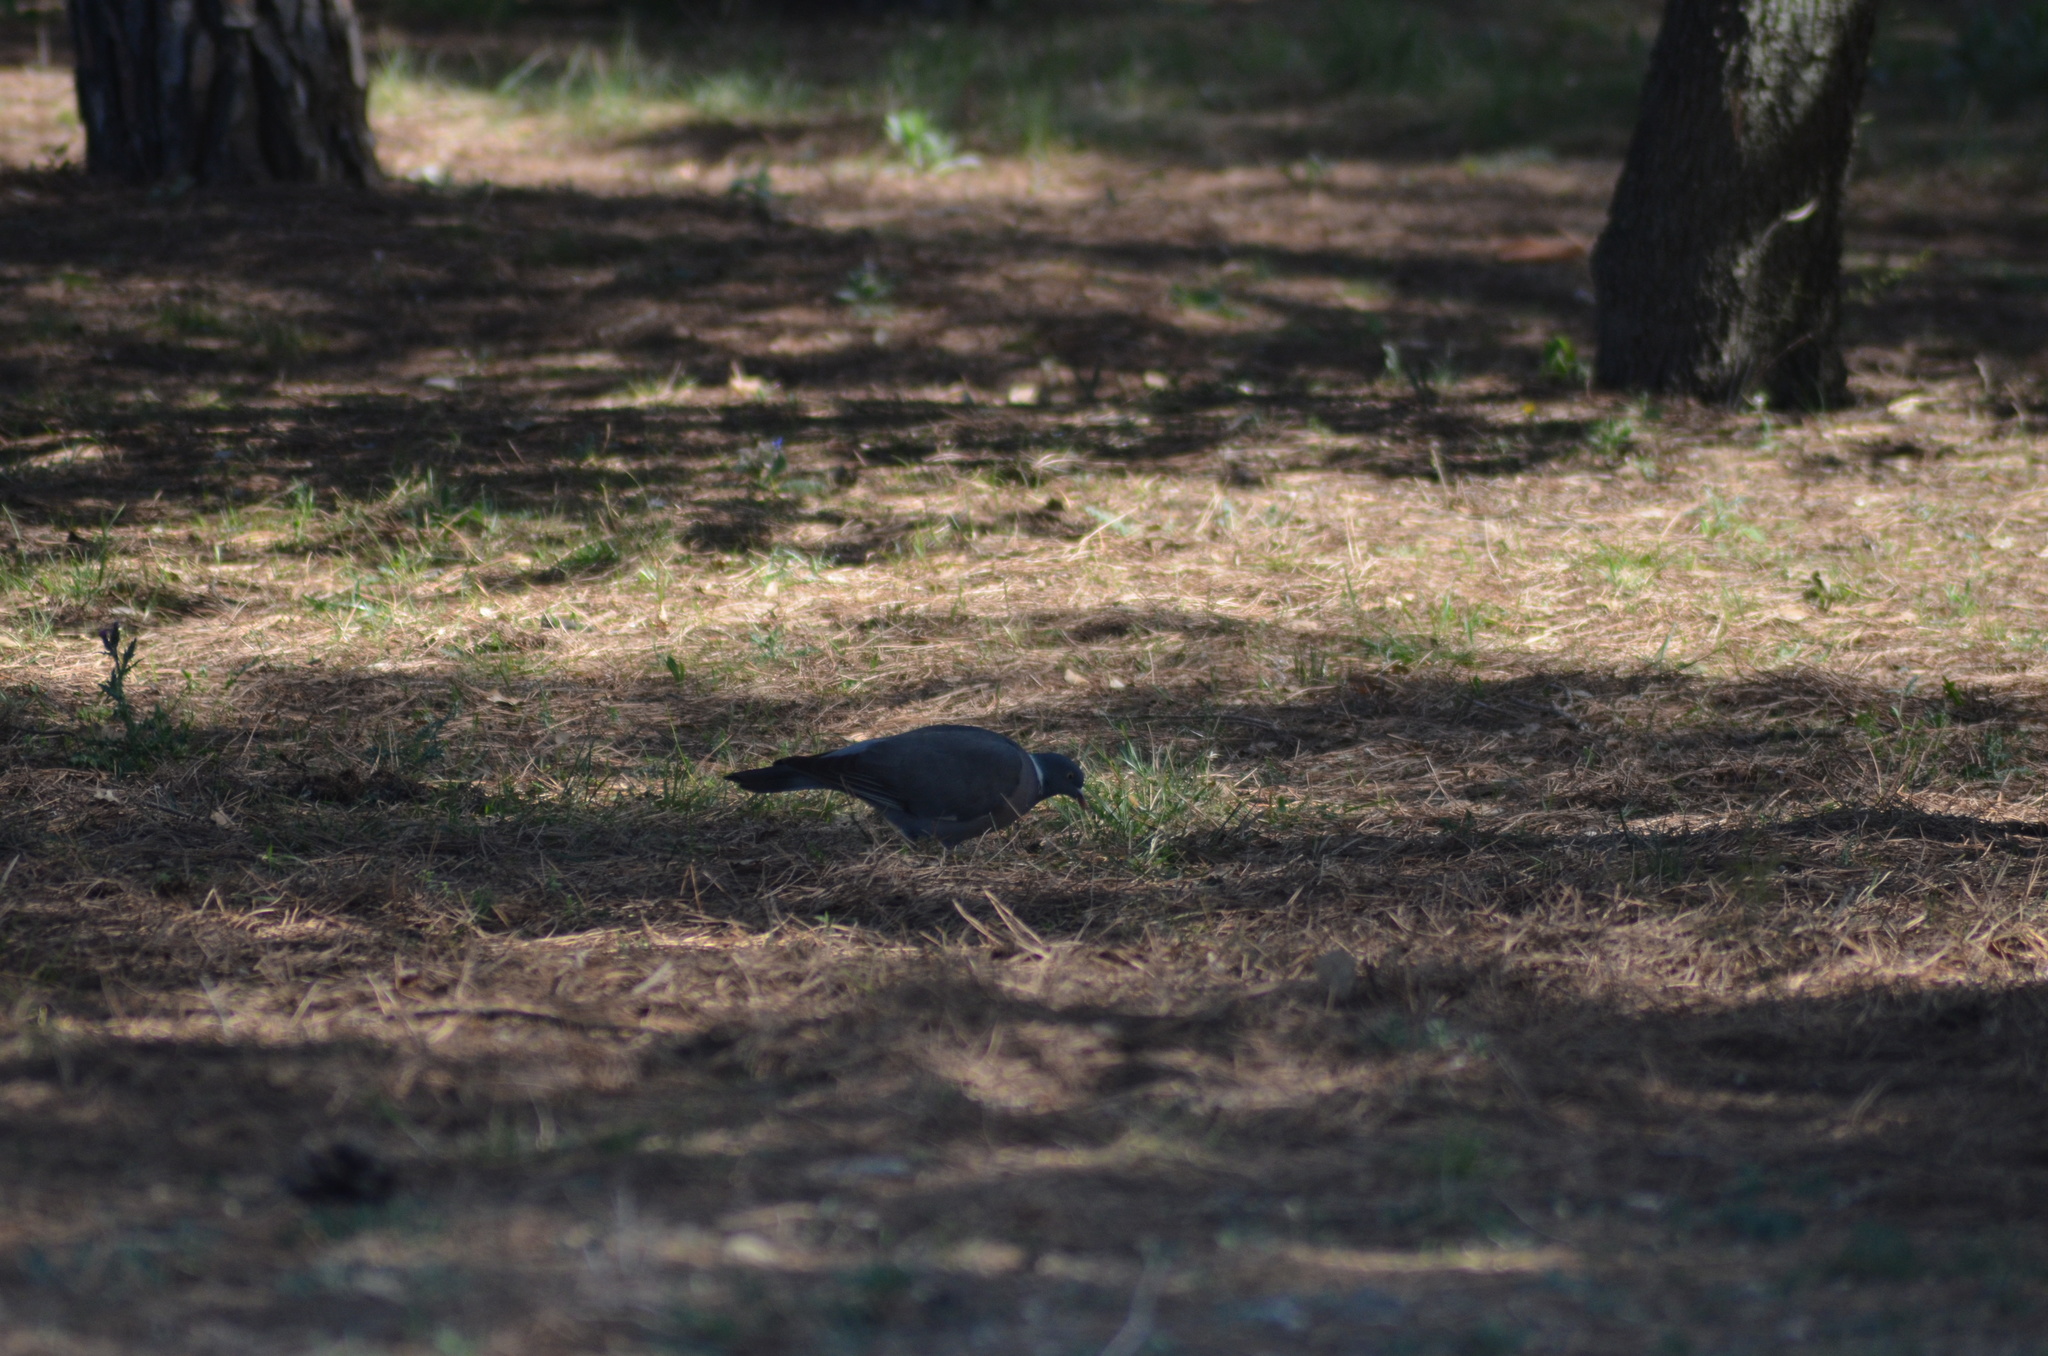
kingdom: Animalia
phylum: Chordata
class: Aves
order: Columbiformes
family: Columbidae
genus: Columba
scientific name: Columba palumbus
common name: Common wood pigeon
